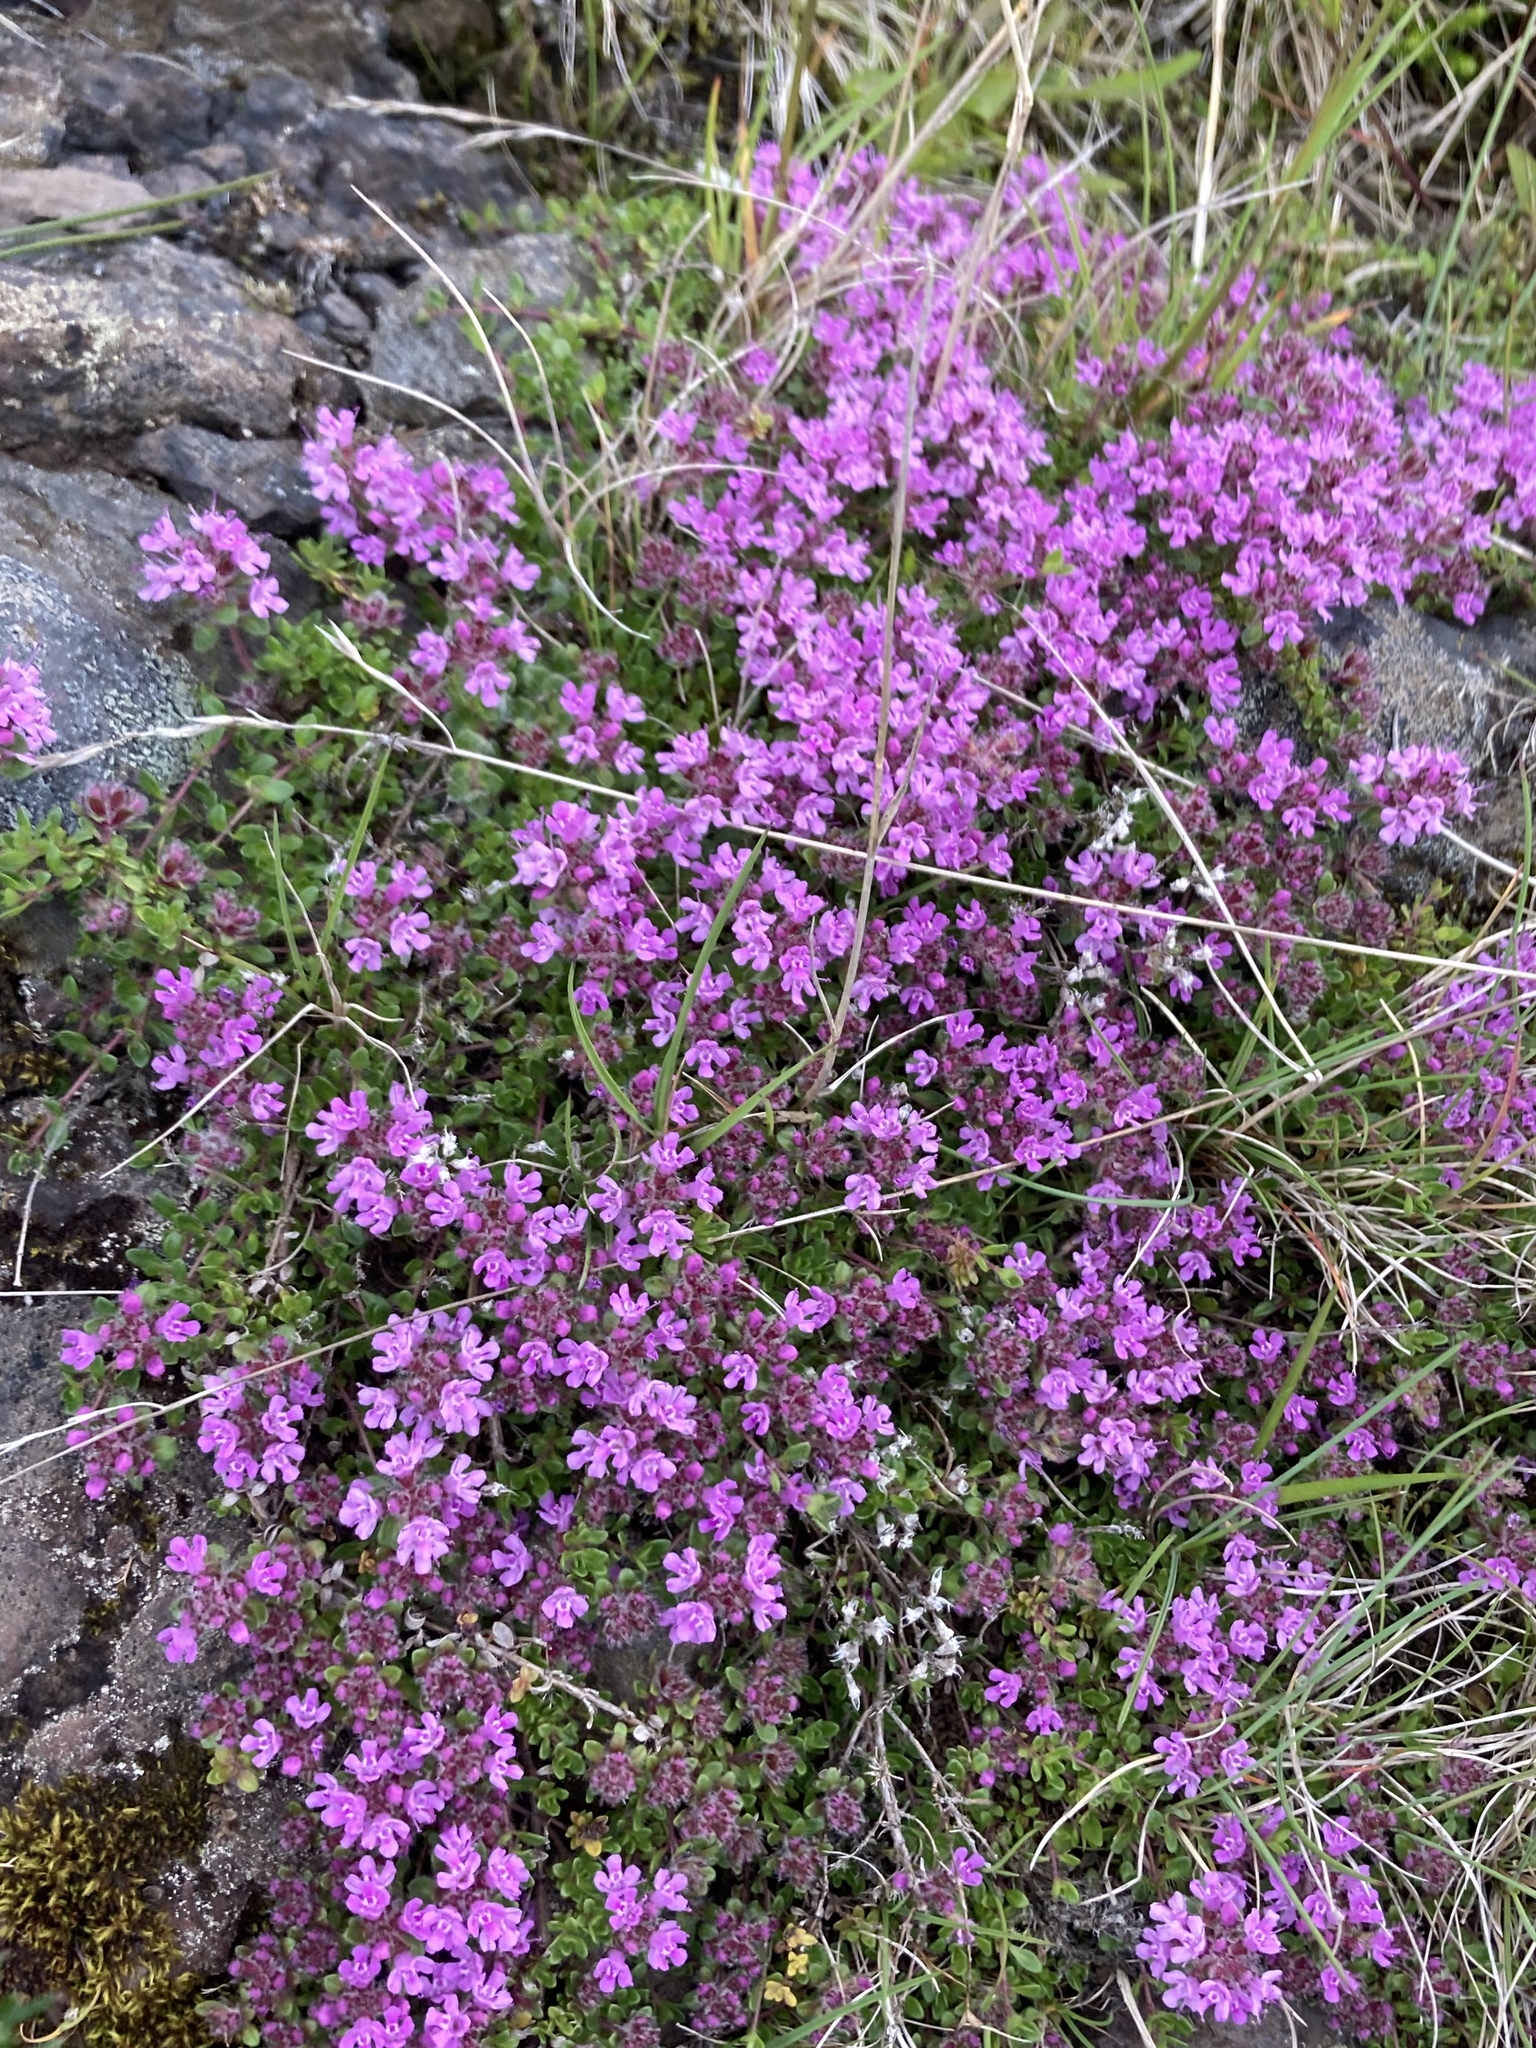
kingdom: Plantae
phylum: Tracheophyta
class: Magnoliopsida
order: Lamiales
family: Lamiaceae
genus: Thymus
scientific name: Thymus praecox
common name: Wild thyme
